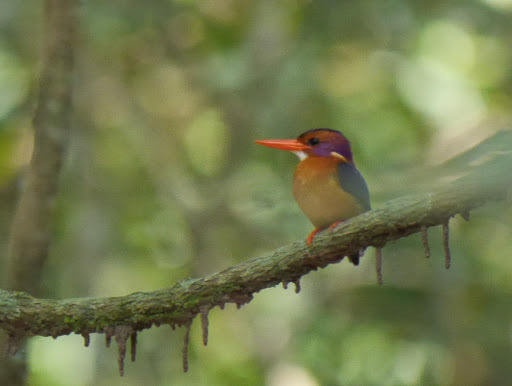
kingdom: Animalia
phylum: Chordata
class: Aves
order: Coraciiformes
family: Alcedinidae
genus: Ispidina
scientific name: Ispidina picta
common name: African pygmy-kingfisher
